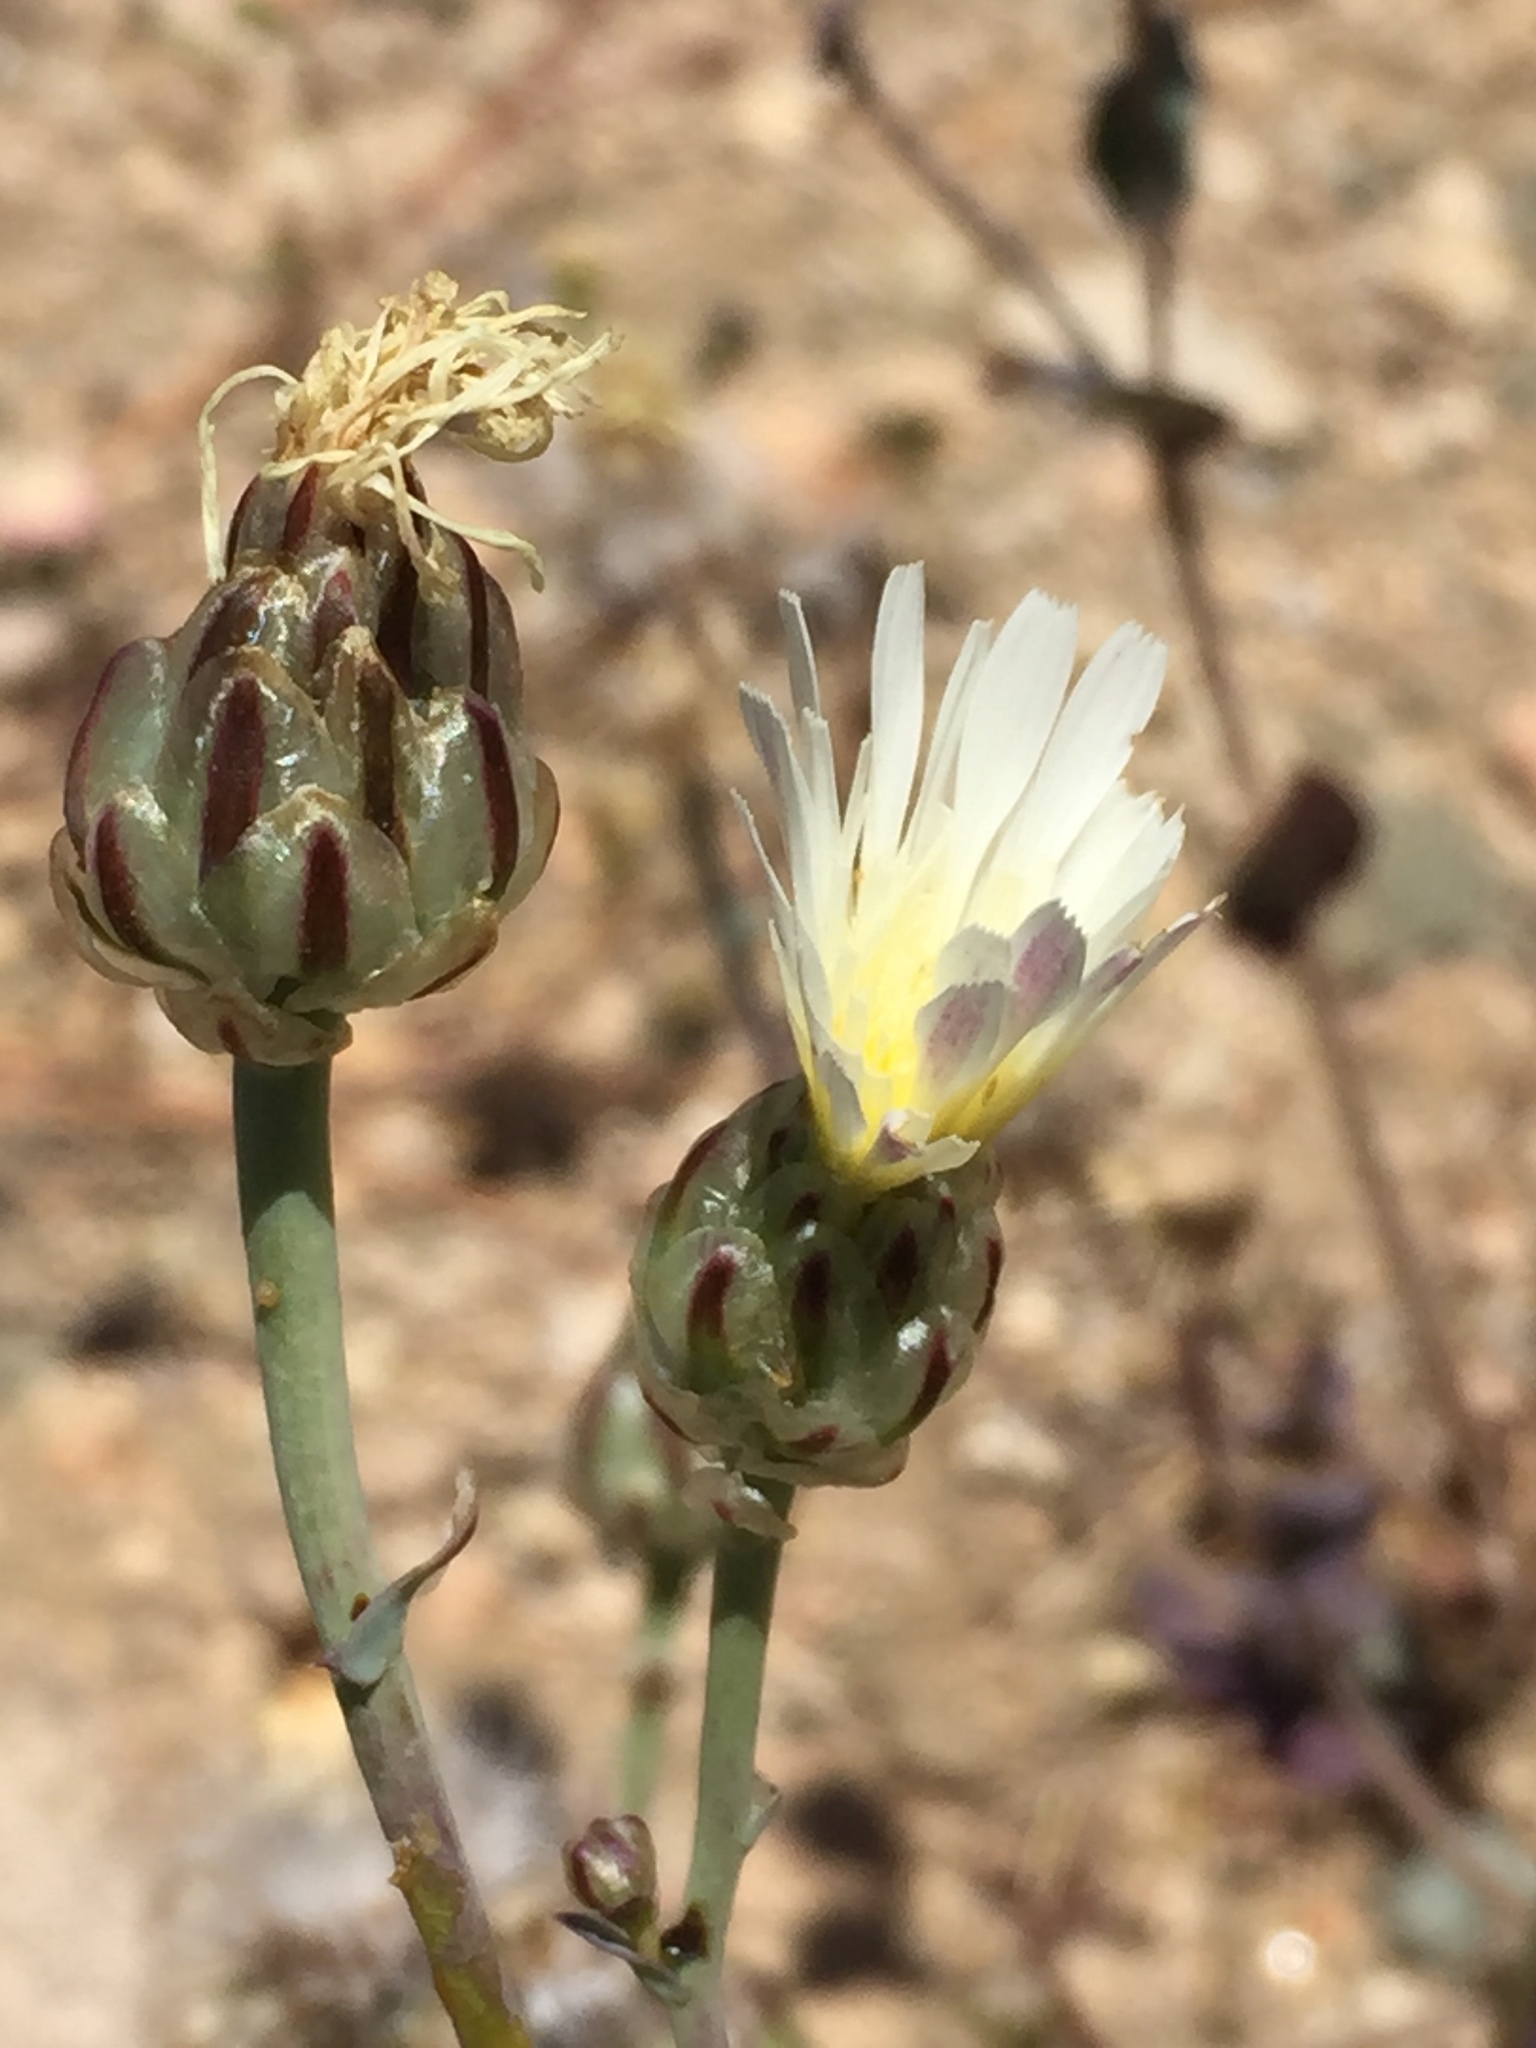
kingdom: Plantae
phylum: Tracheophyta
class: Magnoliopsida
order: Asterales
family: Asteraceae
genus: Malacothrix
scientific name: Malacothrix coulteri
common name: Snake's-head
